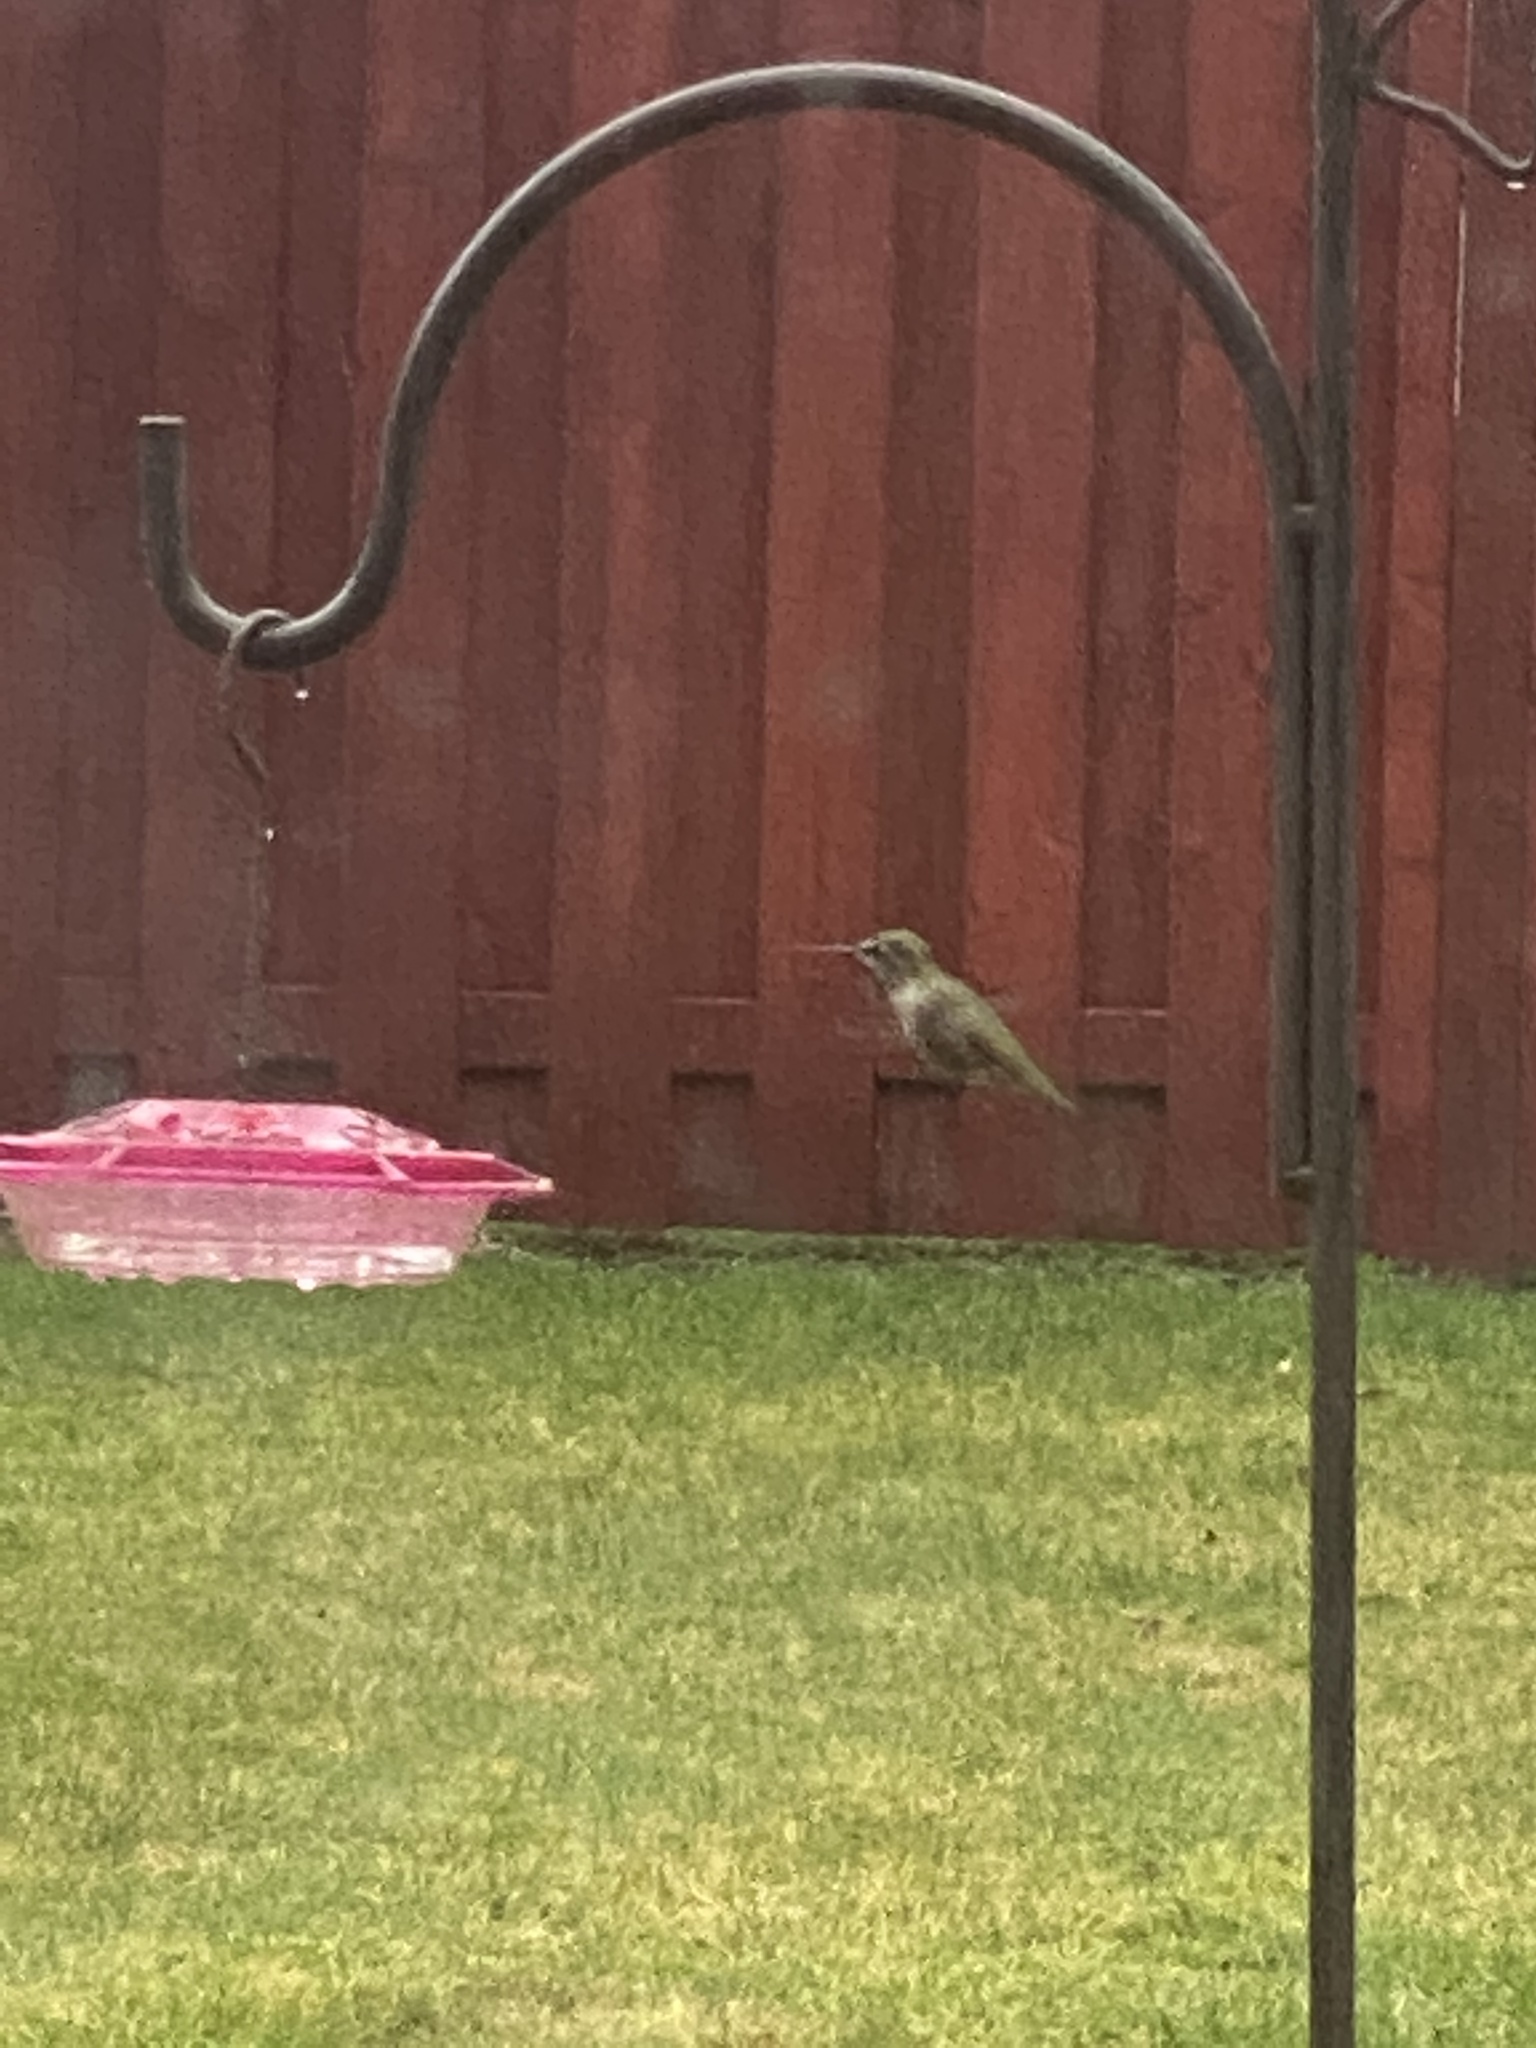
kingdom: Animalia
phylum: Chordata
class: Aves
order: Apodiformes
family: Trochilidae
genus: Calypte
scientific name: Calypte anna
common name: Anna's hummingbird
